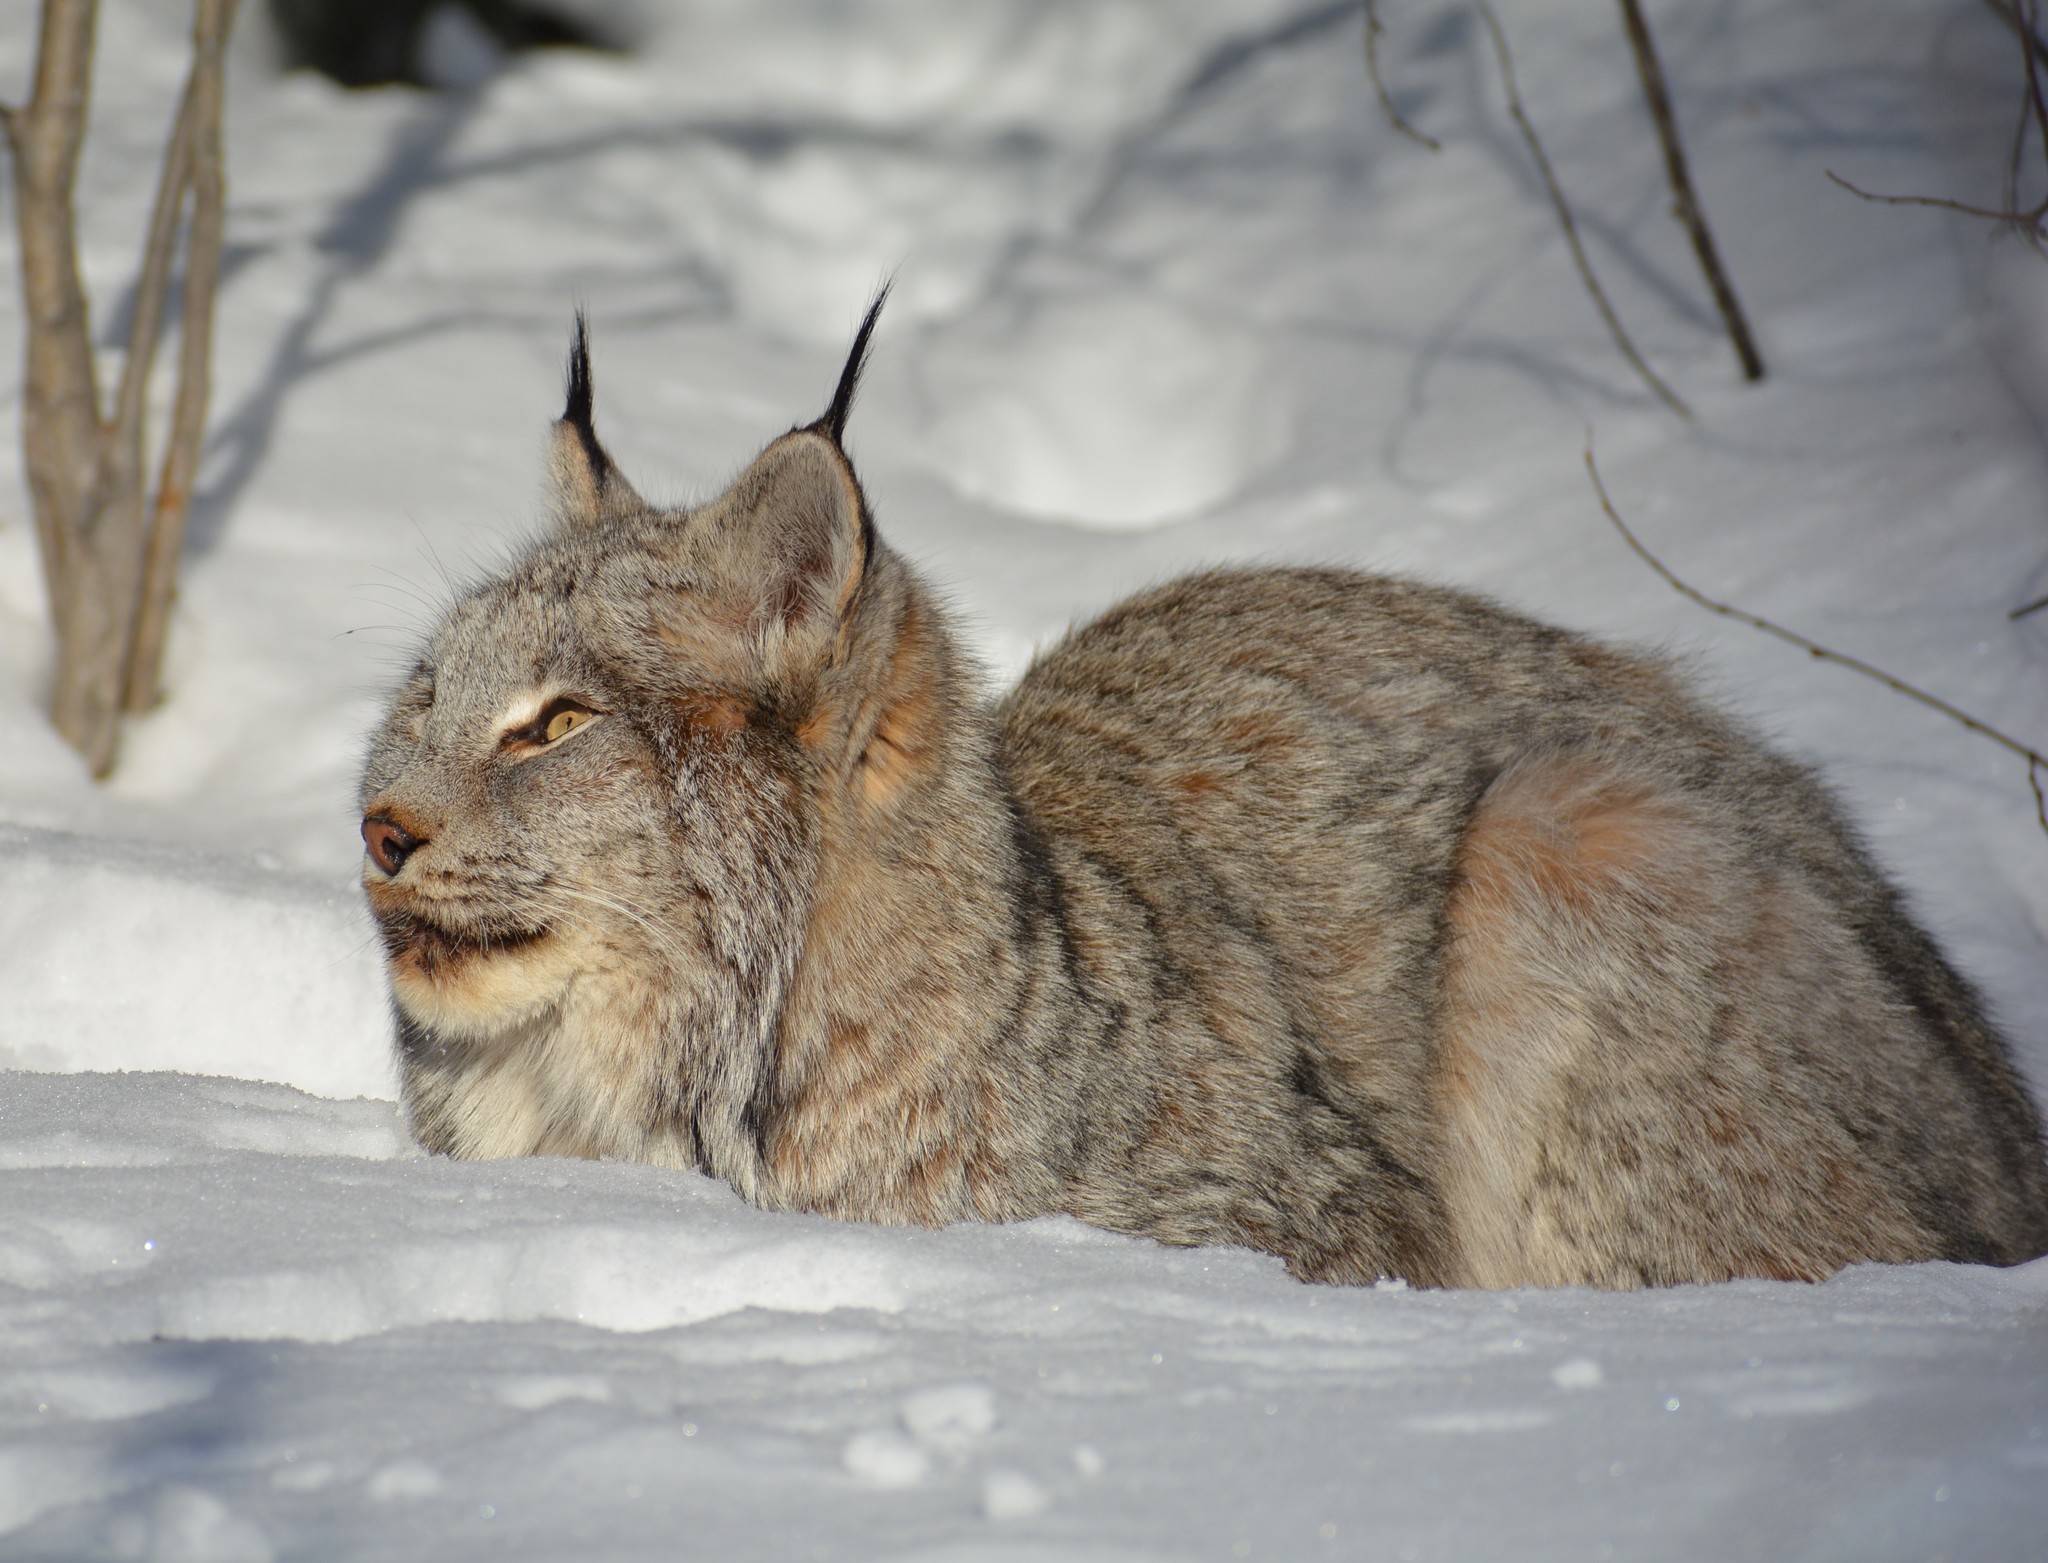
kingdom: Animalia
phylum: Chordata
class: Mammalia
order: Carnivora
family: Felidae
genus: Lynx
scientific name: Lynx canadensis
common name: Canadian lynx
